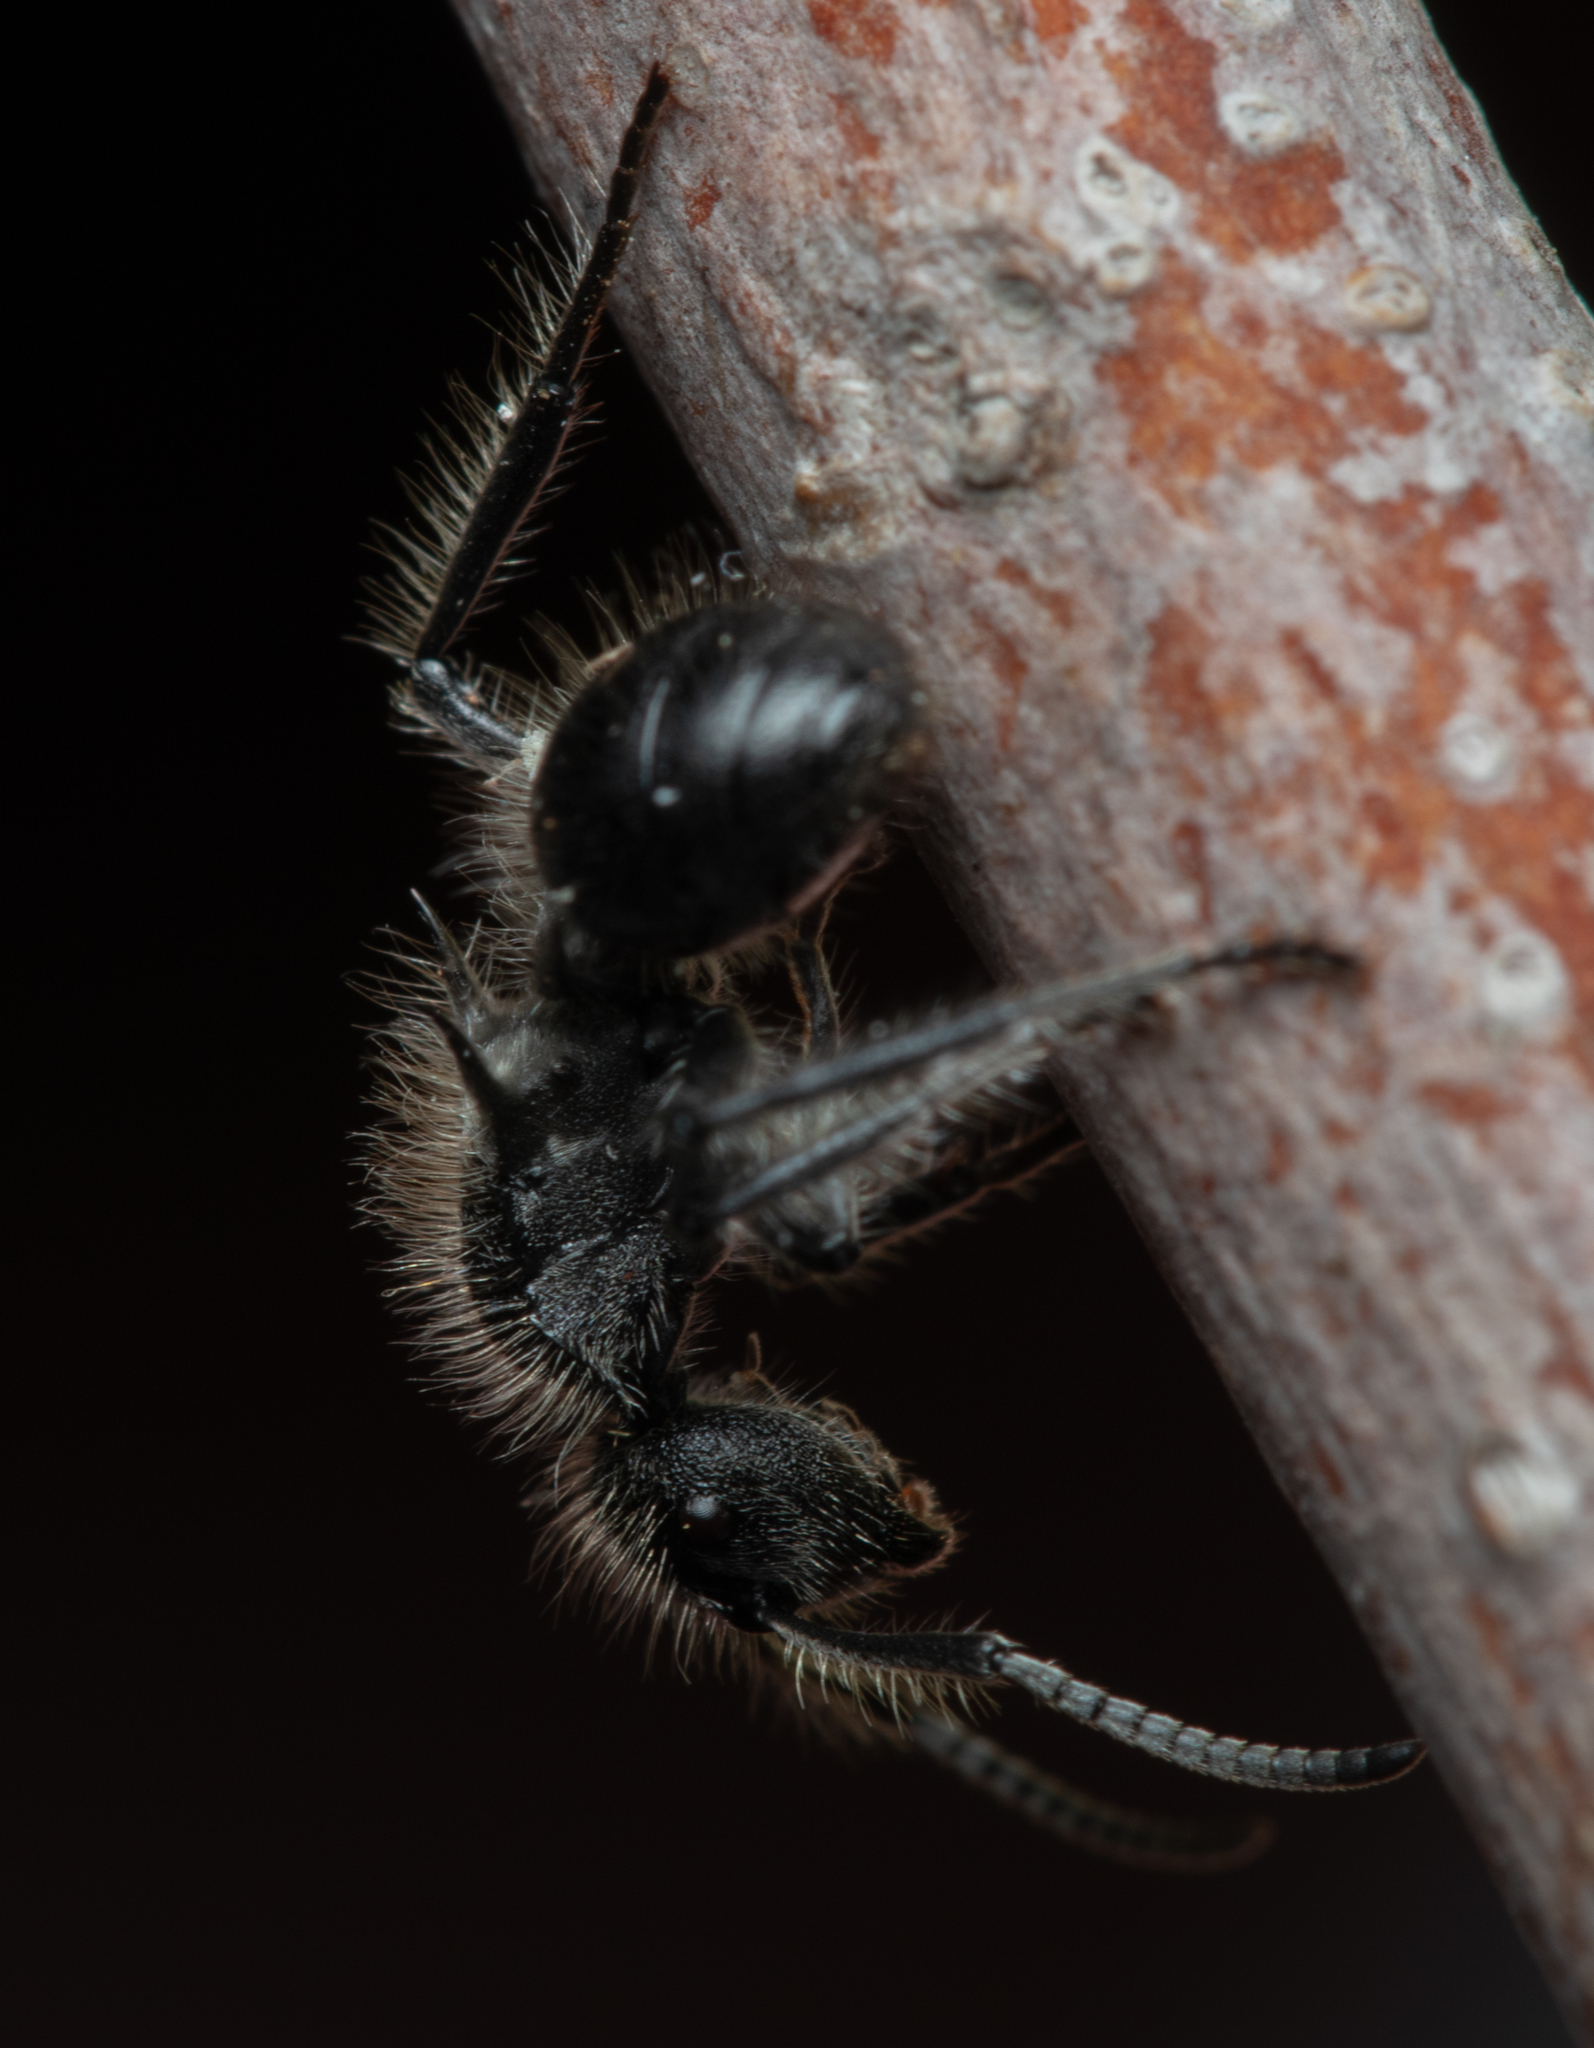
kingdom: Animalia
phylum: Arthropoda
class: Insecta
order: Hymenoptera
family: Formicidae
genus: Polyrhachis
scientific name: Polyrhachis punctiventris
